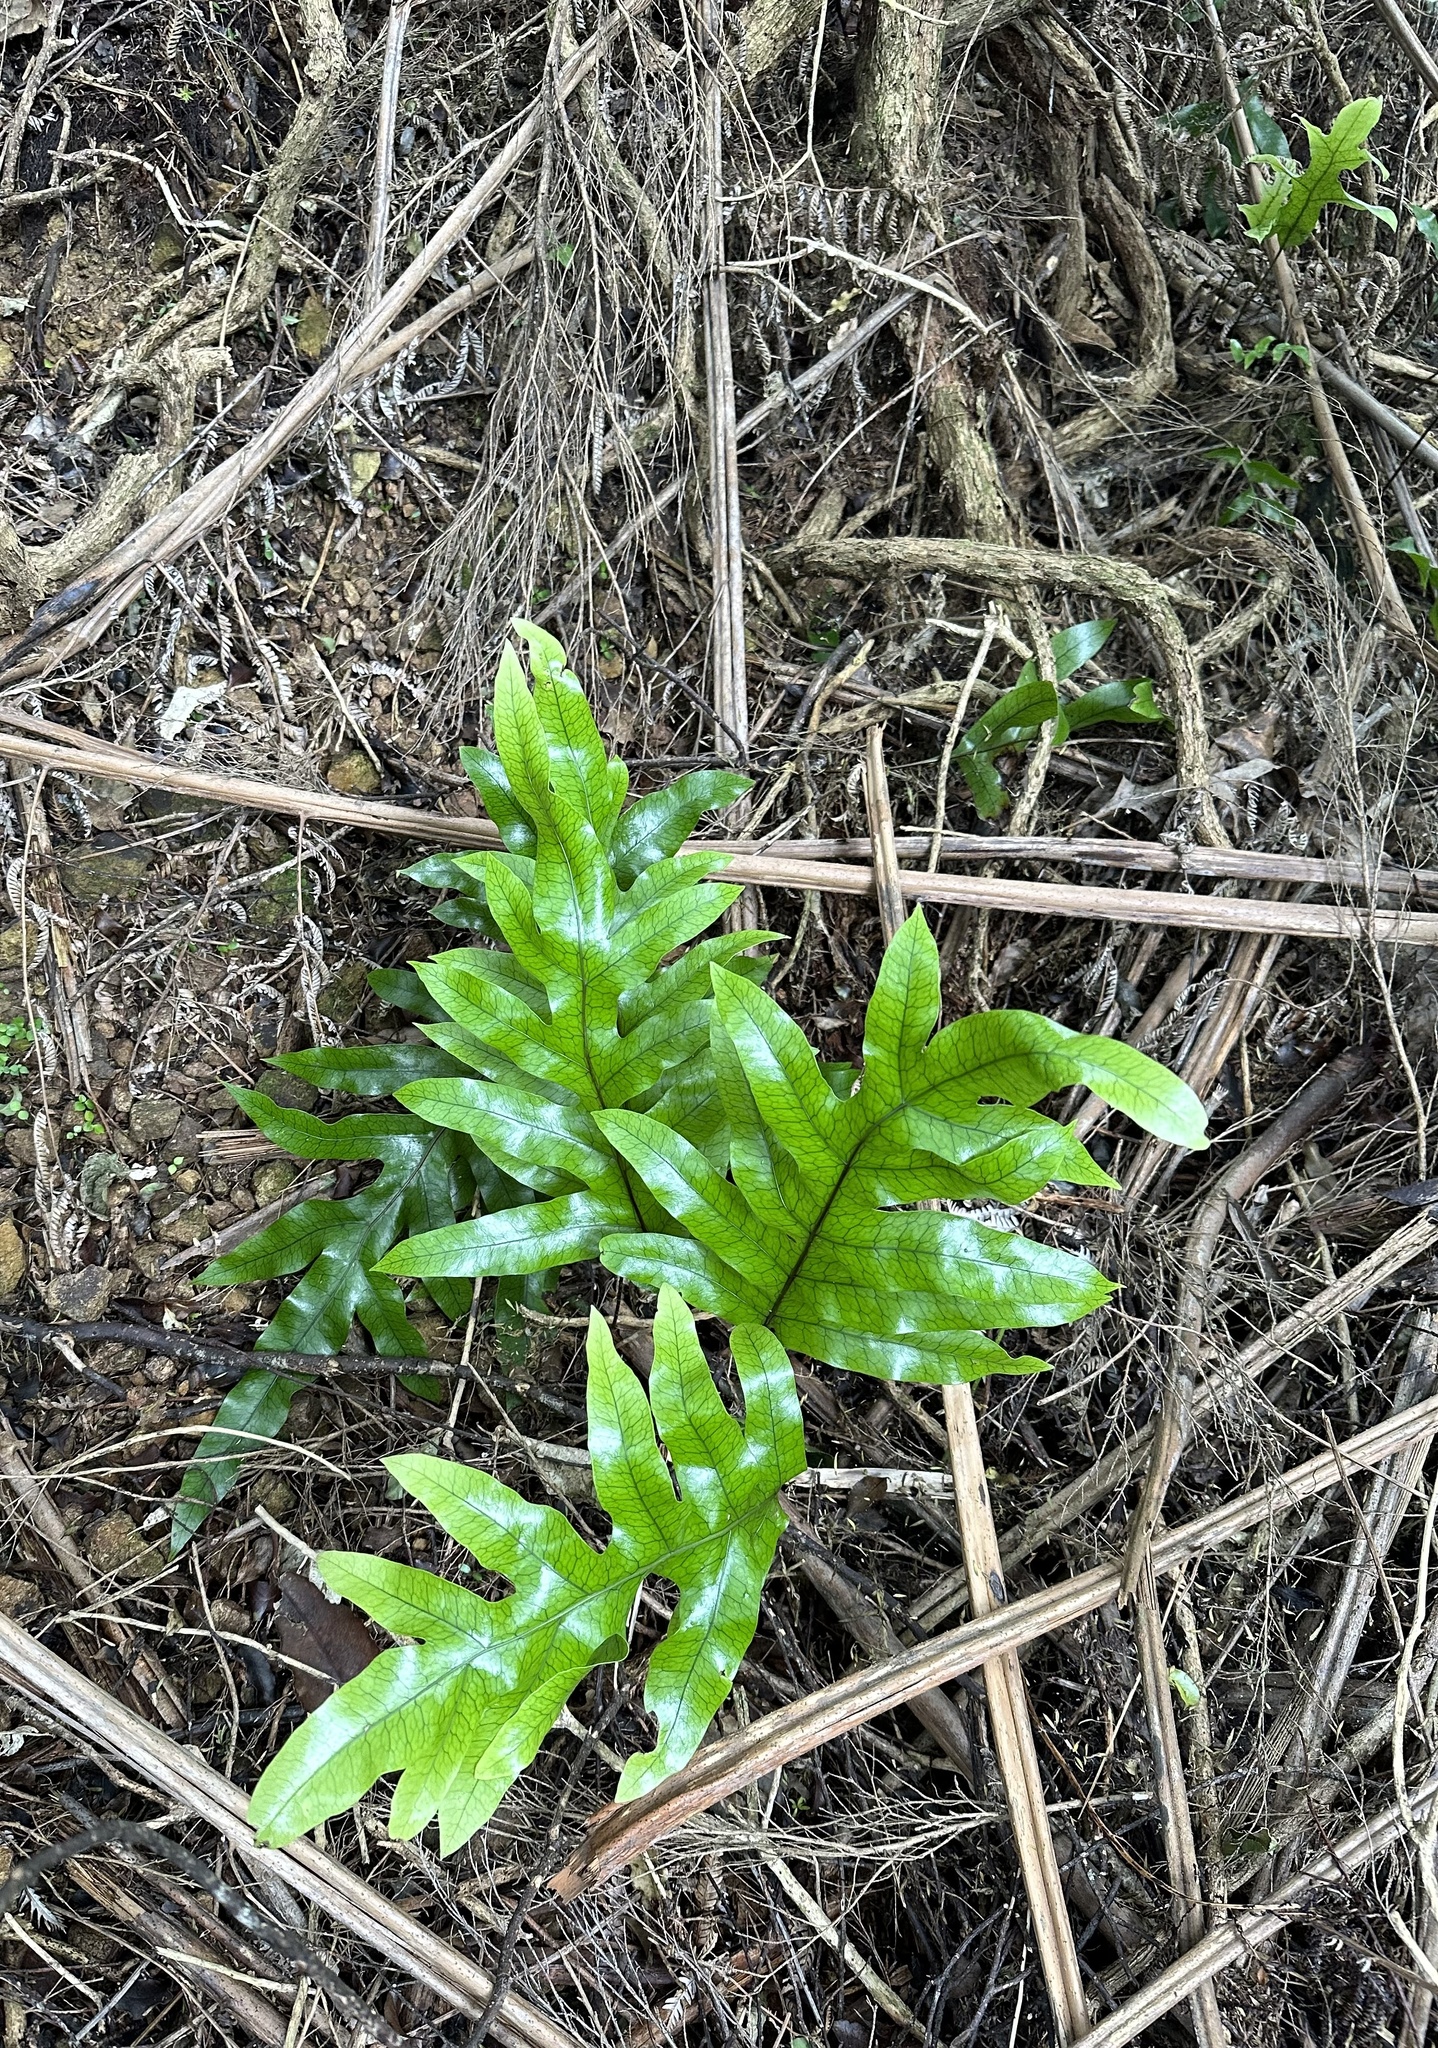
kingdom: Plantae
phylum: Tracheophyta
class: Polypodiopsida
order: Polypodiales
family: Polypodiaceae
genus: Lecanopteris
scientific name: Lecanopteris pustulata
